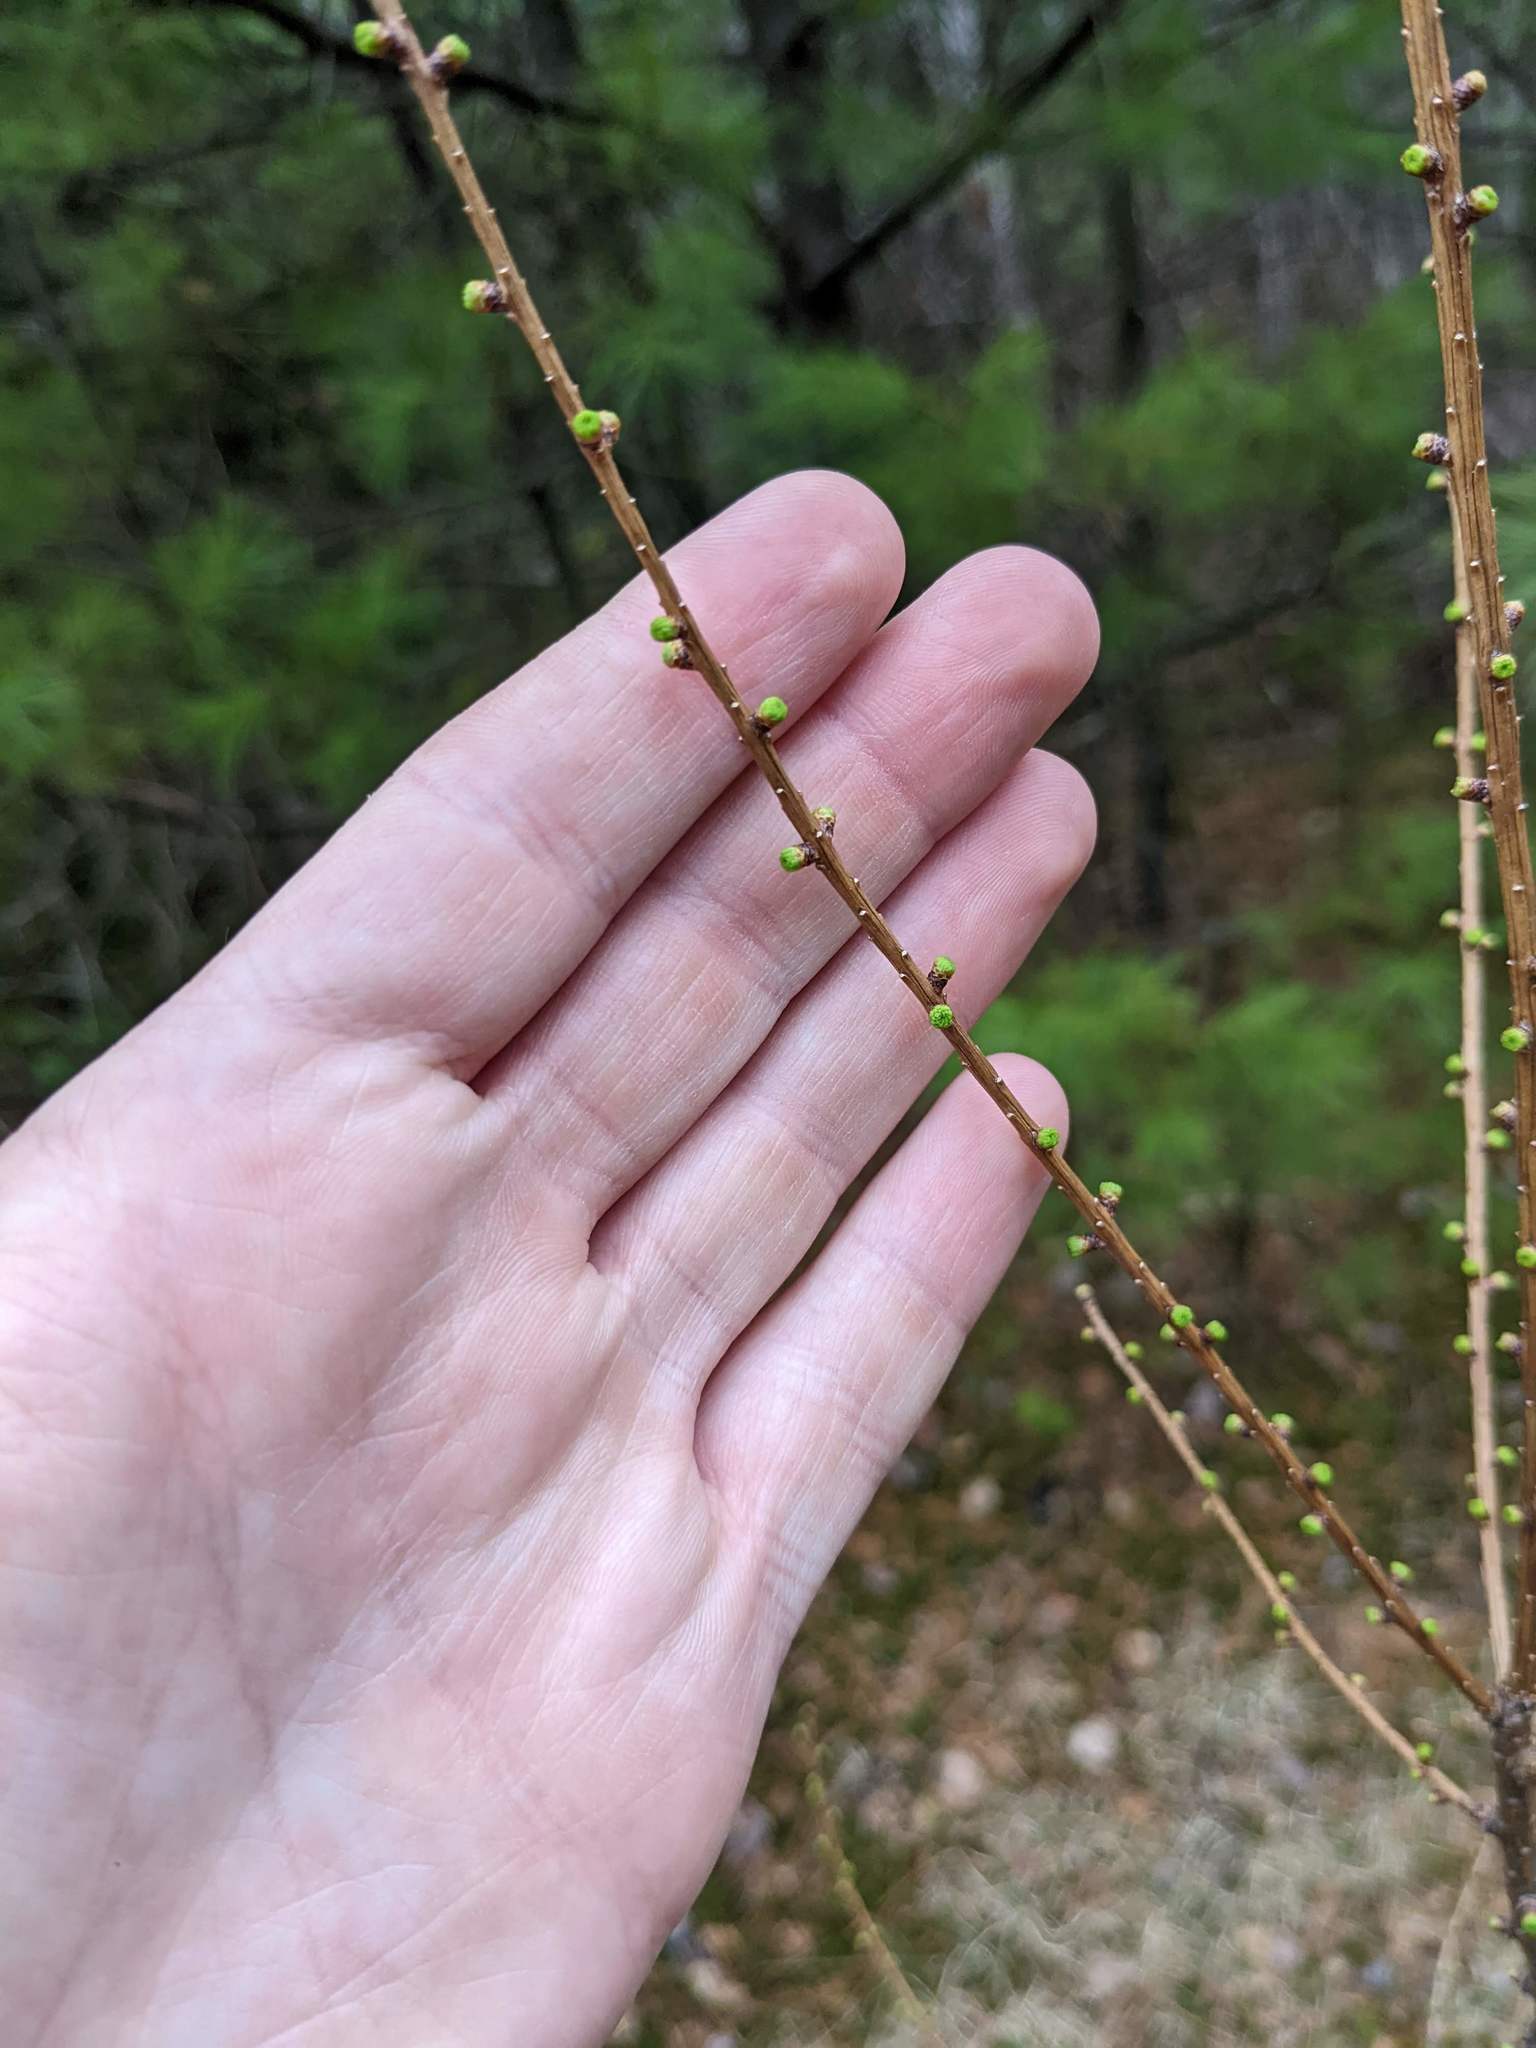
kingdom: Plantae
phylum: Tracheophyta
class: Pinopsida
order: Pinales
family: Pinaceae
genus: Larix
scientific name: Larix laricina
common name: American larch
